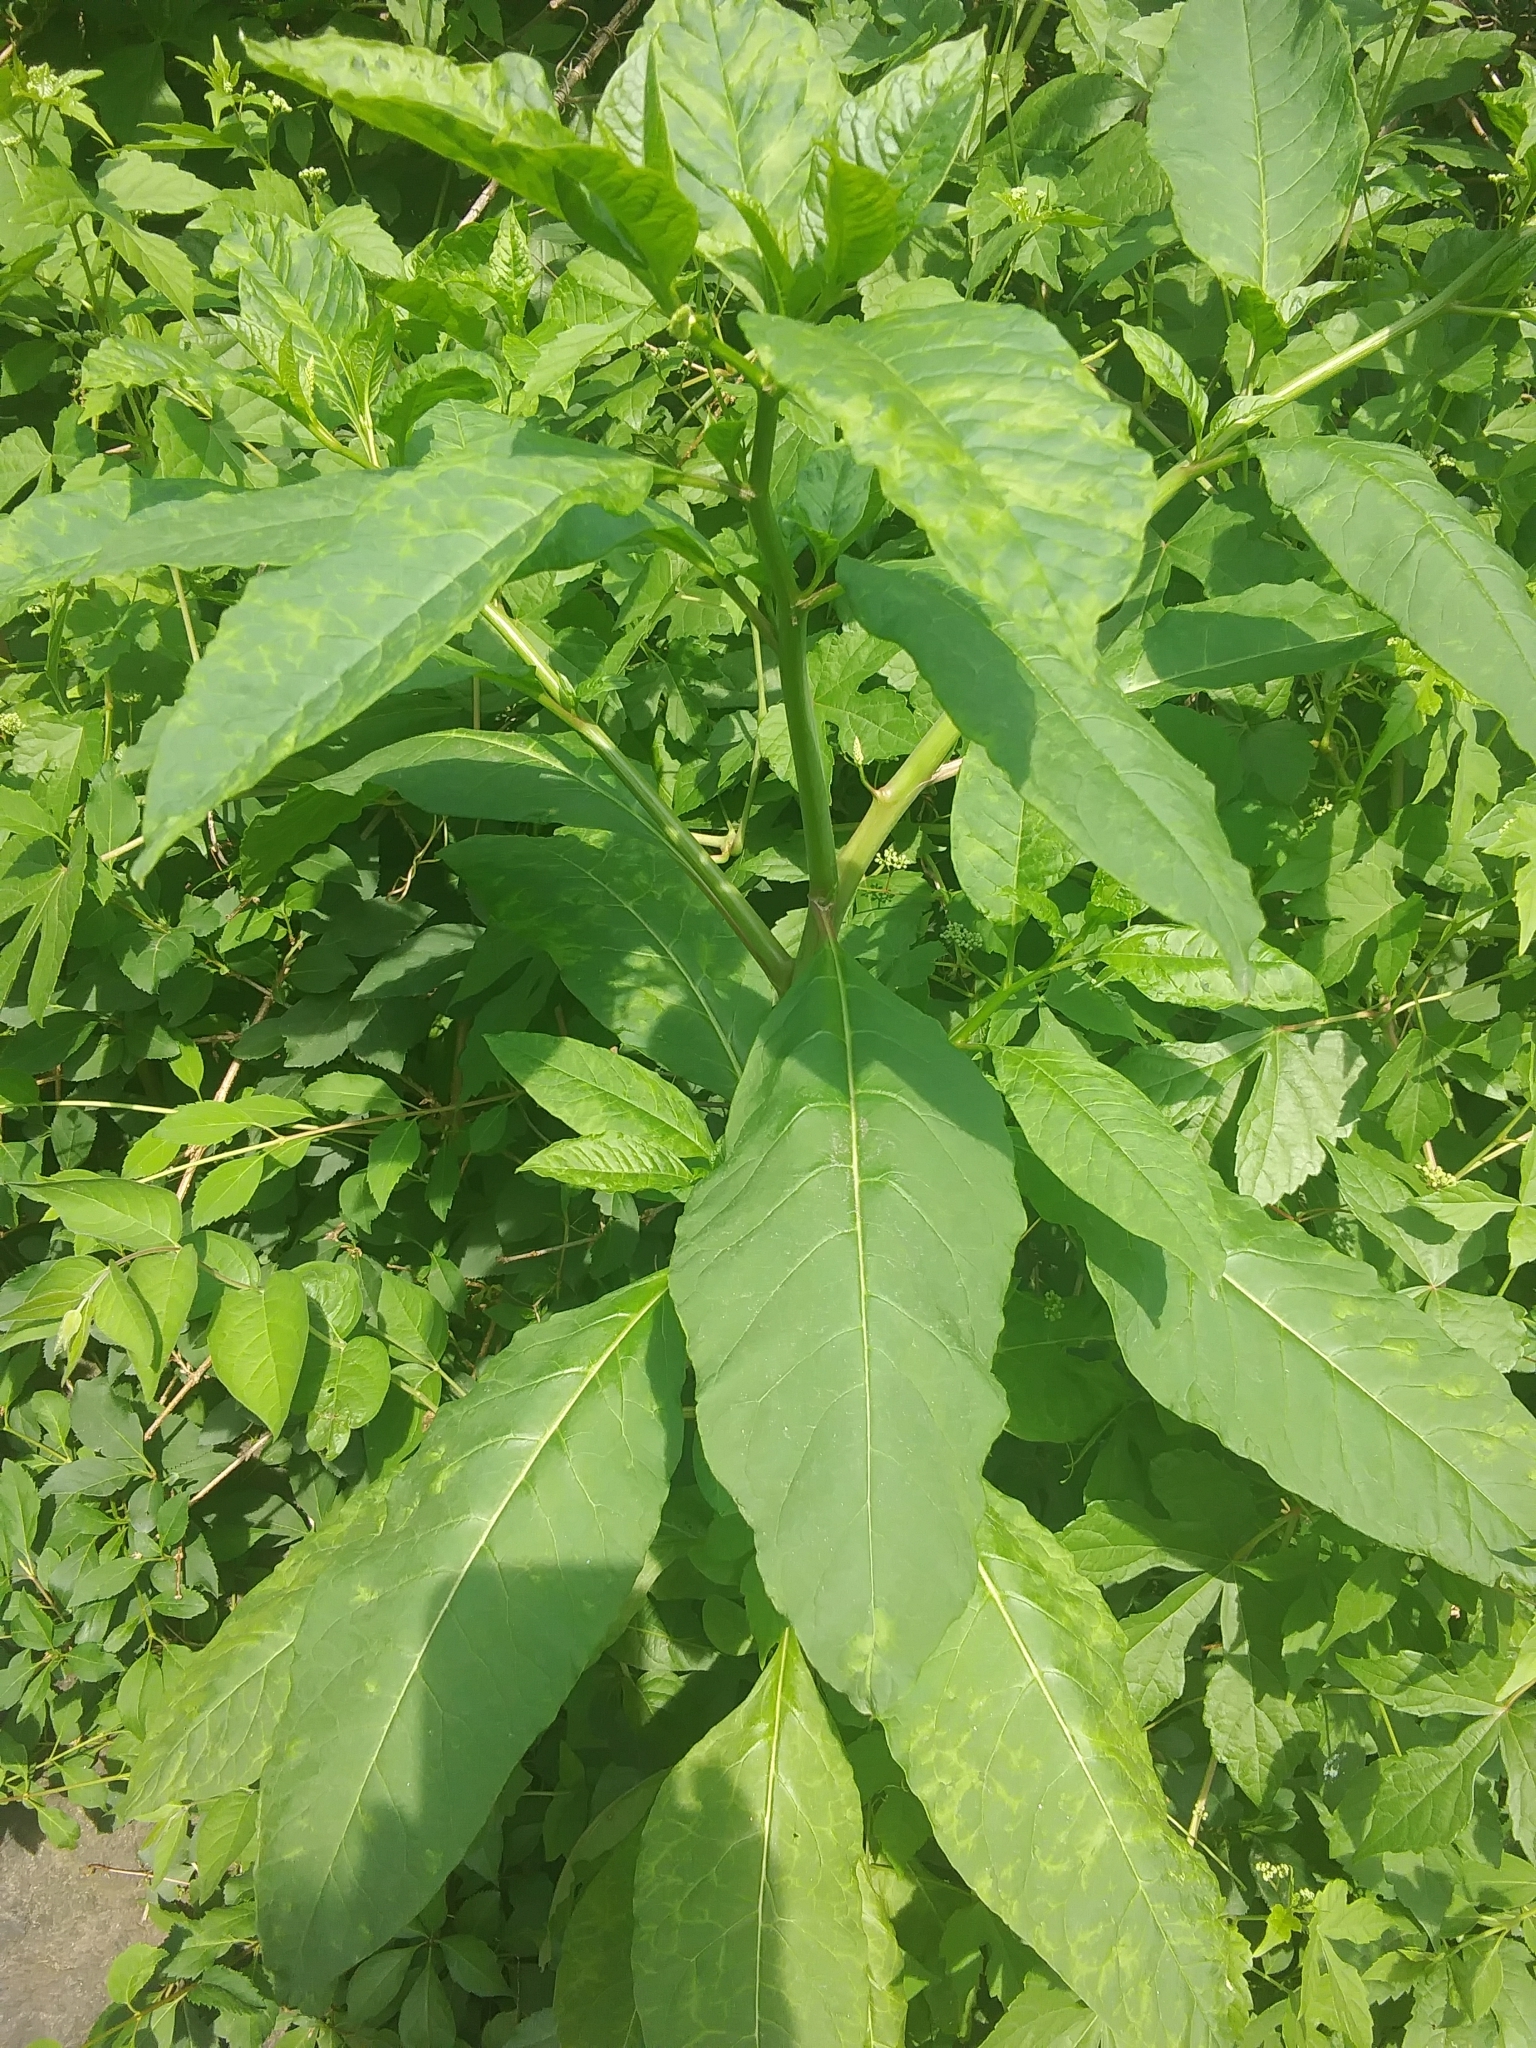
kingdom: Plantae
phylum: Tracheophyta
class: Magnoliopsida
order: Caryophyllales
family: Phytolaccaceae
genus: Phytolacca
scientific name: Phytolacca americana
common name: American pokeweed
